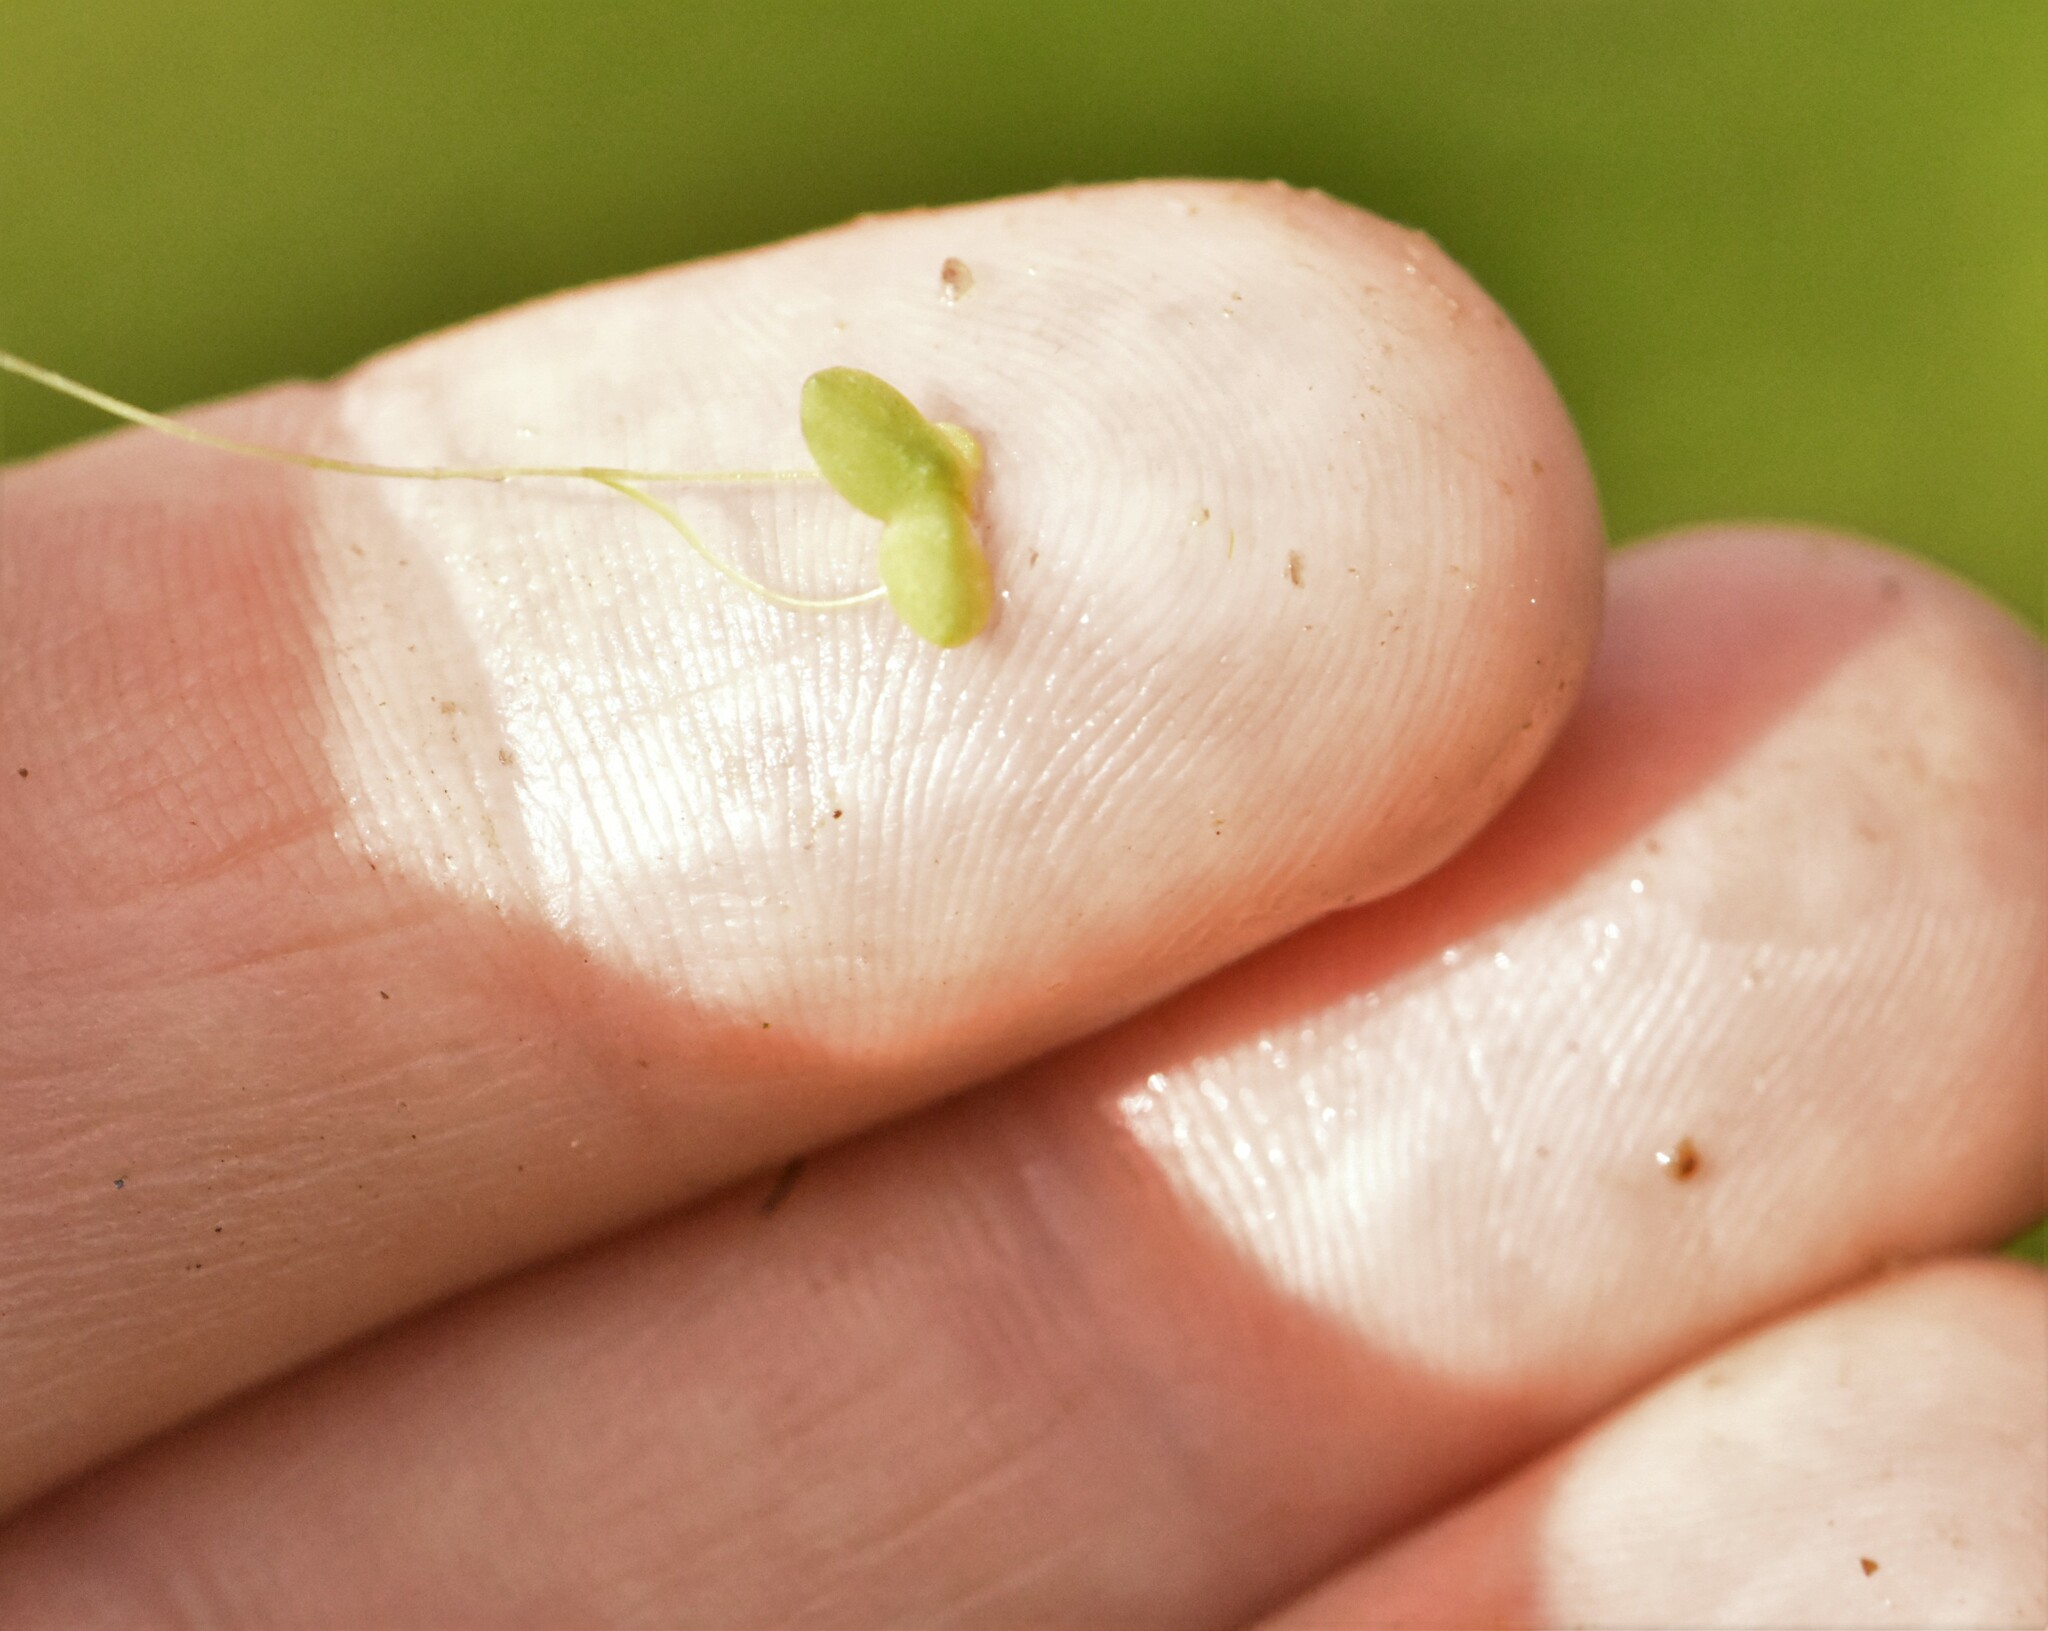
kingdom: Plantae
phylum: Tracheophyta
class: Liliopsida
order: Alismatales
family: Araceae
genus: Lemna
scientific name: Lemna minor
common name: Common duckweed
